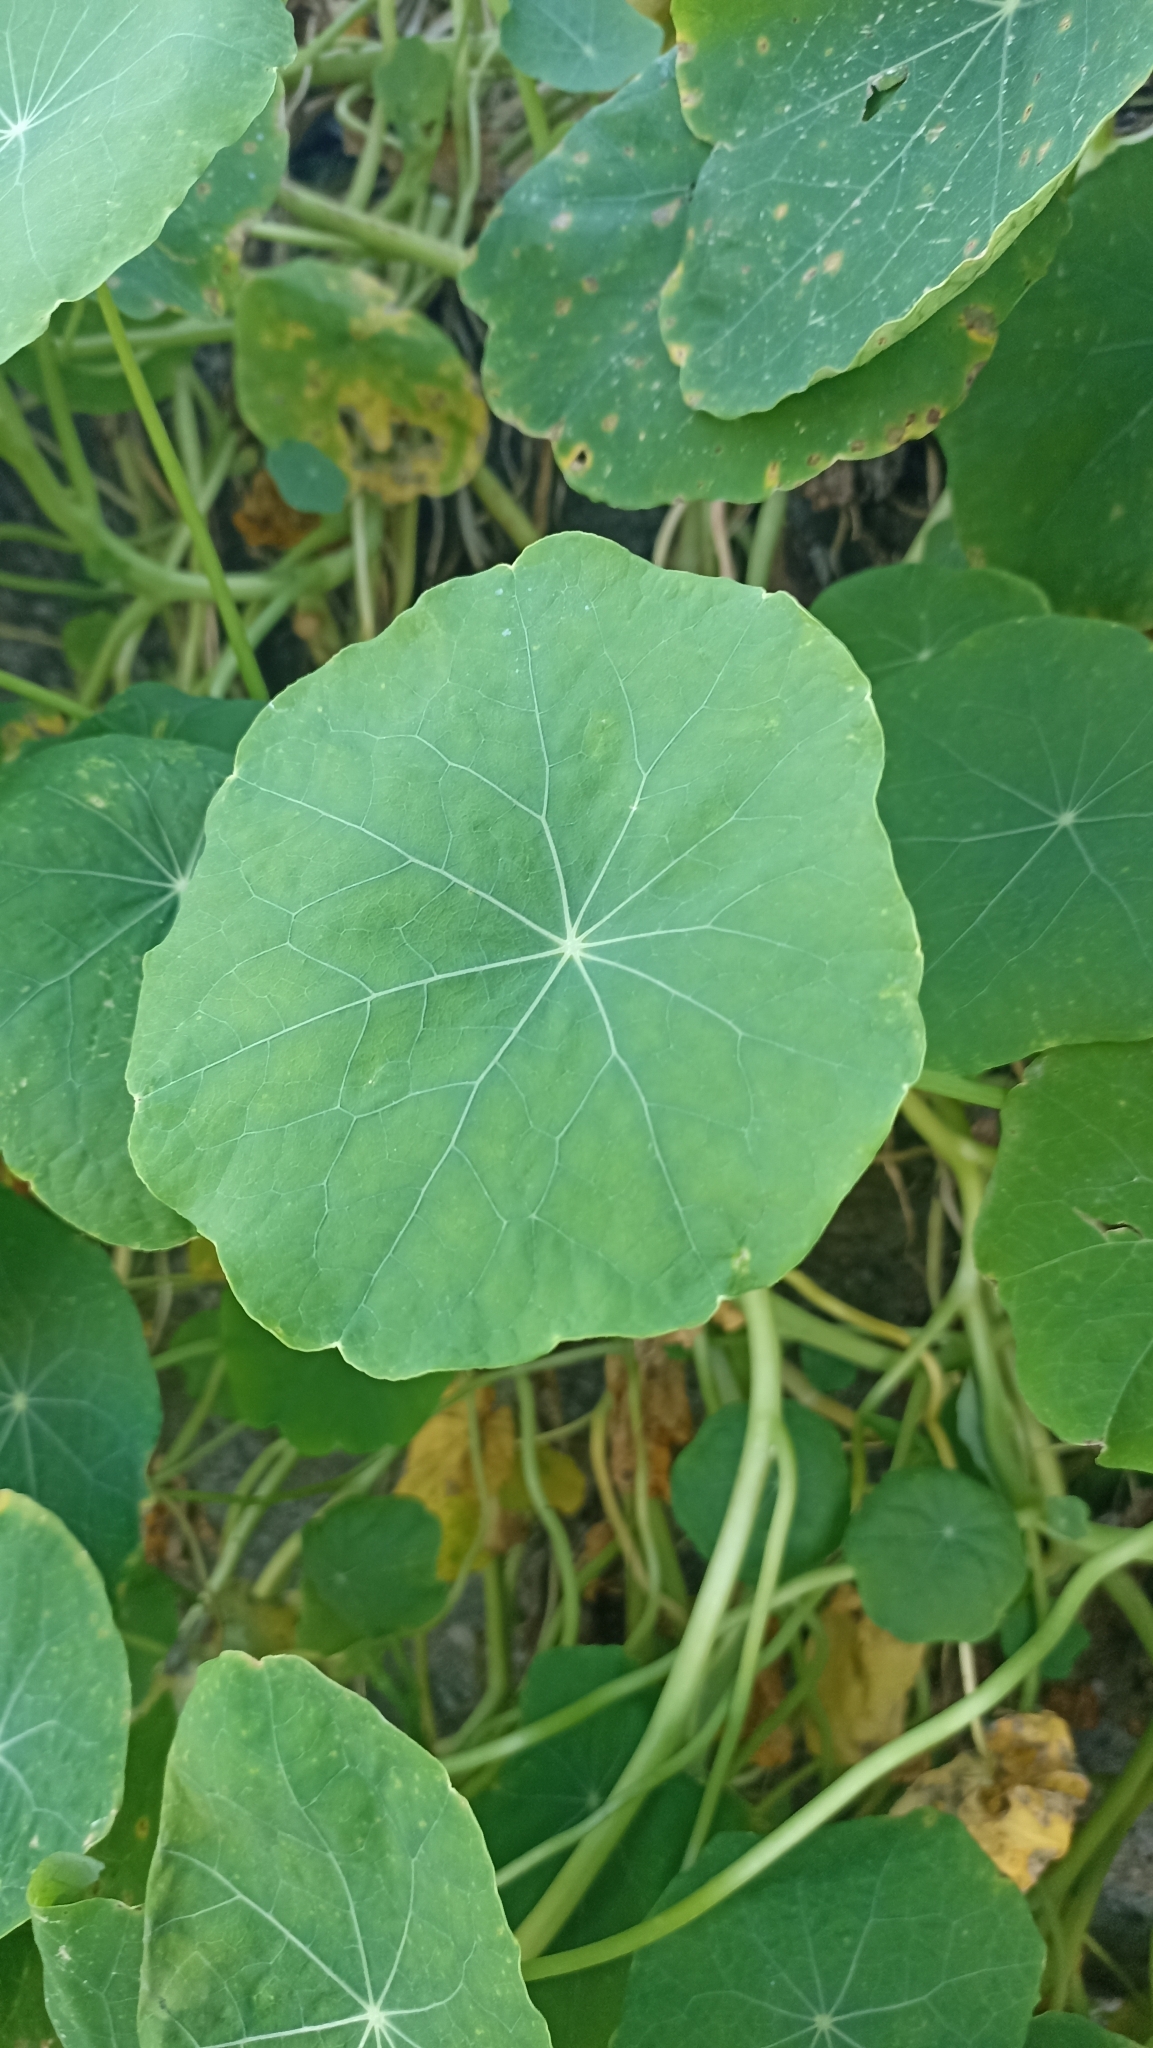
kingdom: Plantae
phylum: Tracheophyta
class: Magnoliopsida
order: Brassicales
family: Tropaeolaceae
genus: Tropaeolum
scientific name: Tropaeolum majus
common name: Nasturtium
